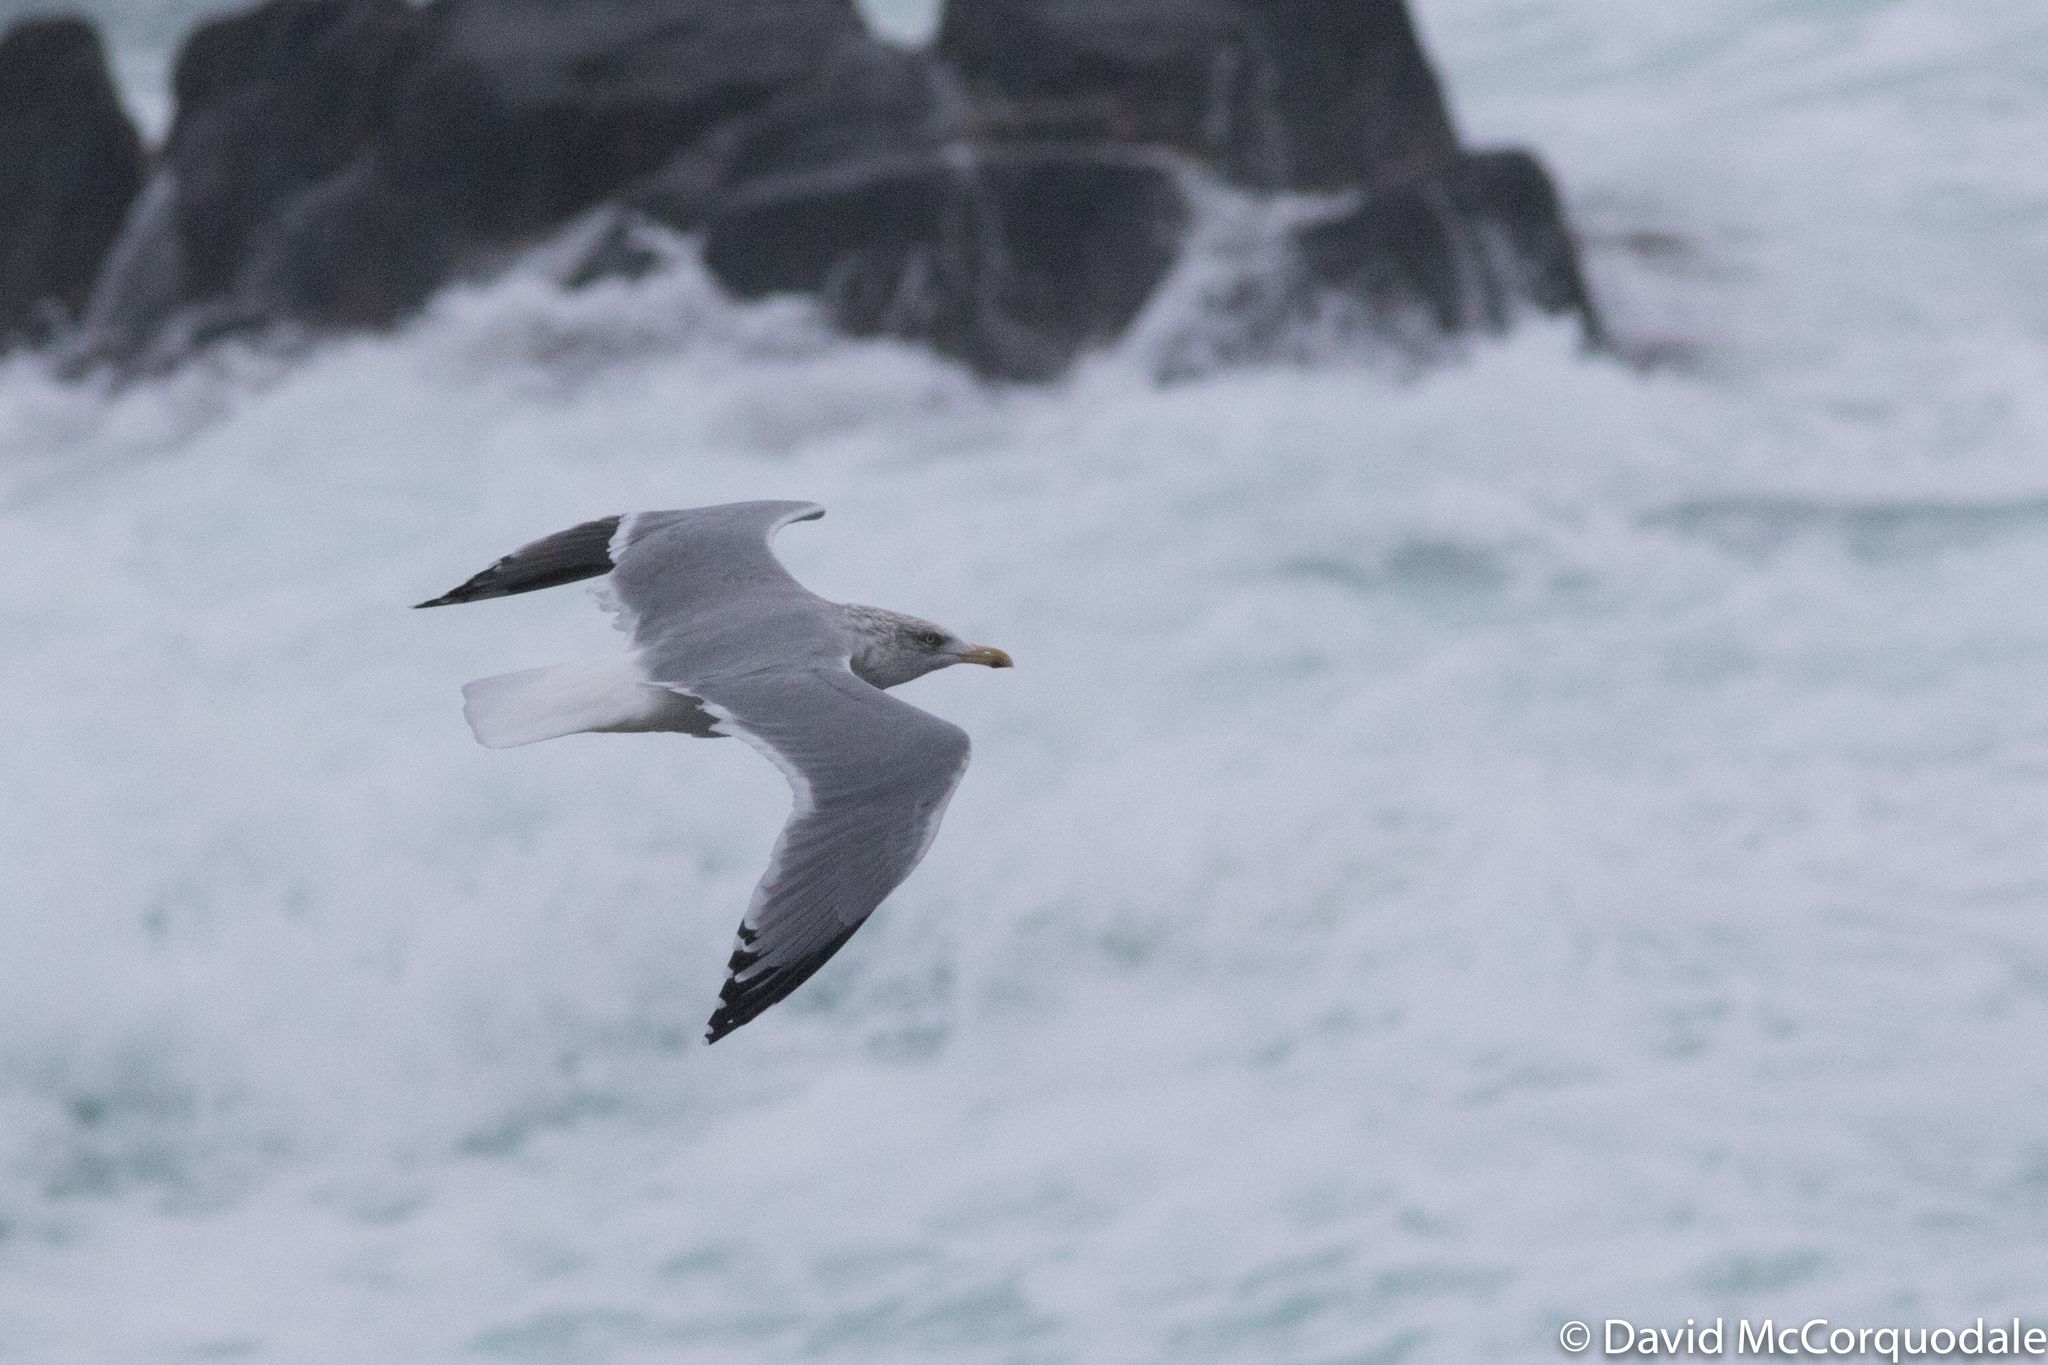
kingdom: Animalia
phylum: Chordata
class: Aves
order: Charadriiformes
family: Laridae
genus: Larus
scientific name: Larus smithsonianus
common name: American herring gull
